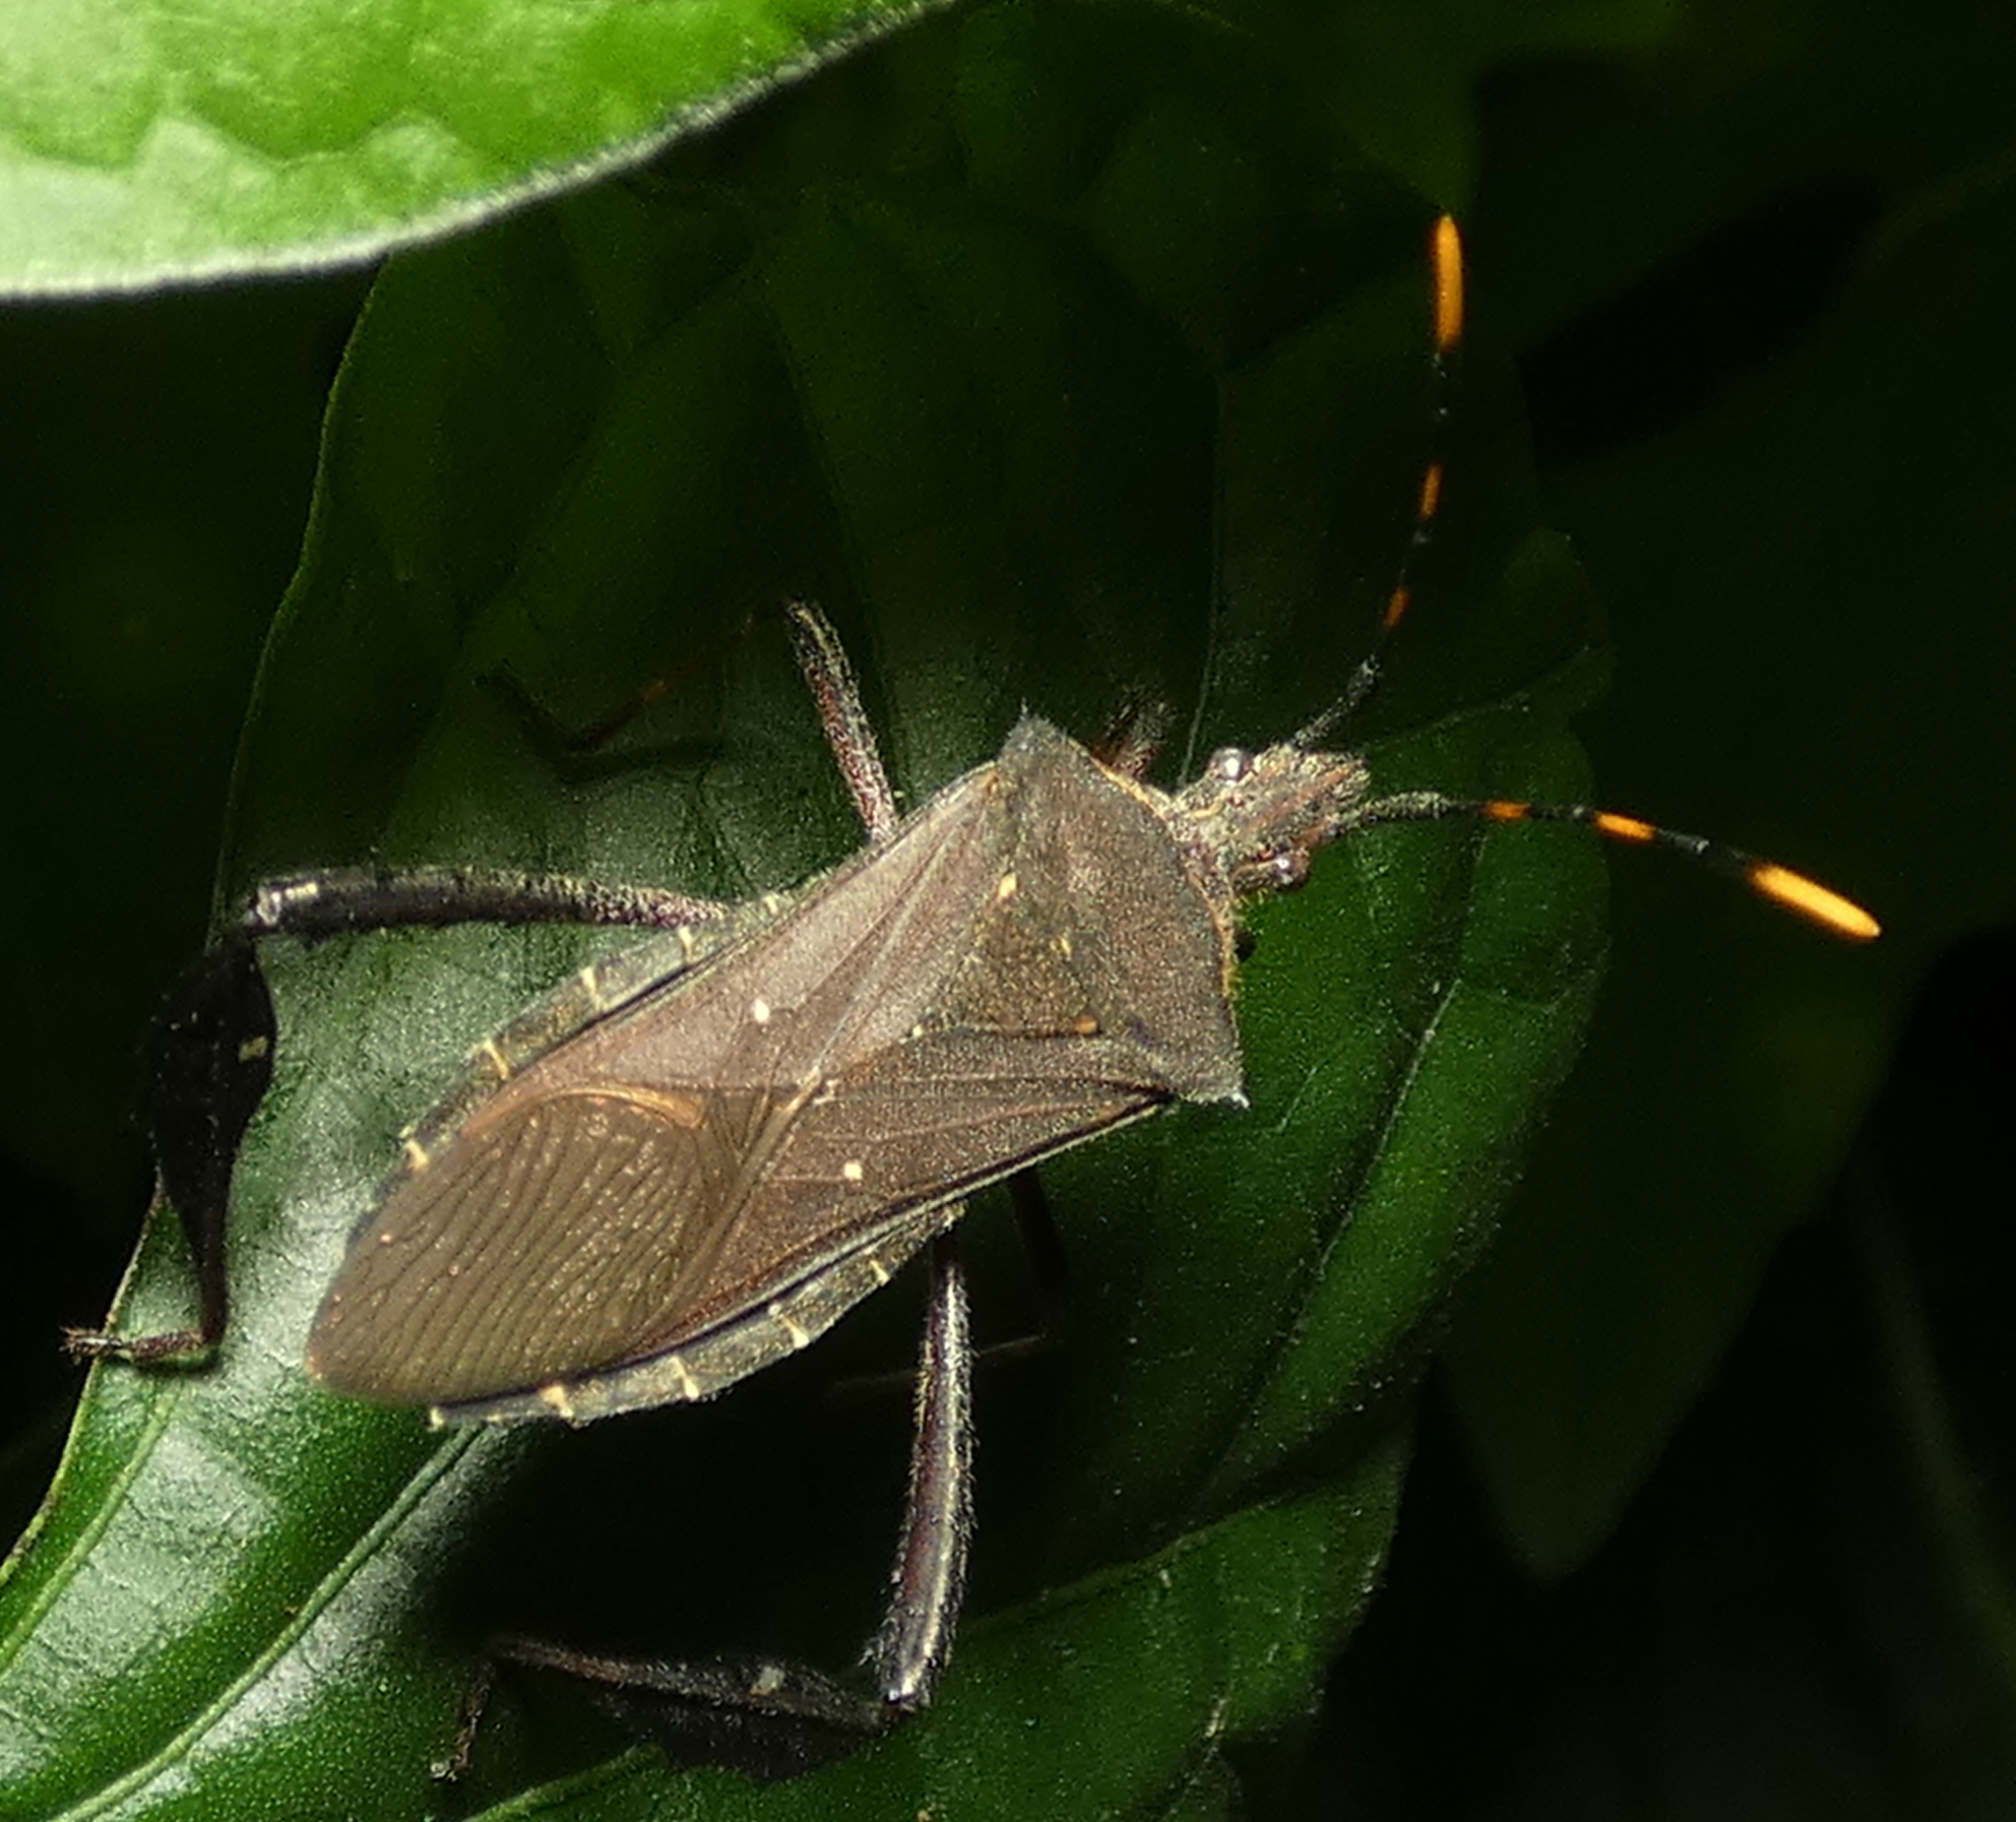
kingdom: Animalia
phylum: Arthropoda
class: Insecta
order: Hemiptera
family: Coreidae
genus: Leptoglossus
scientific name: Leptoglossus gonagra
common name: Citron bug
